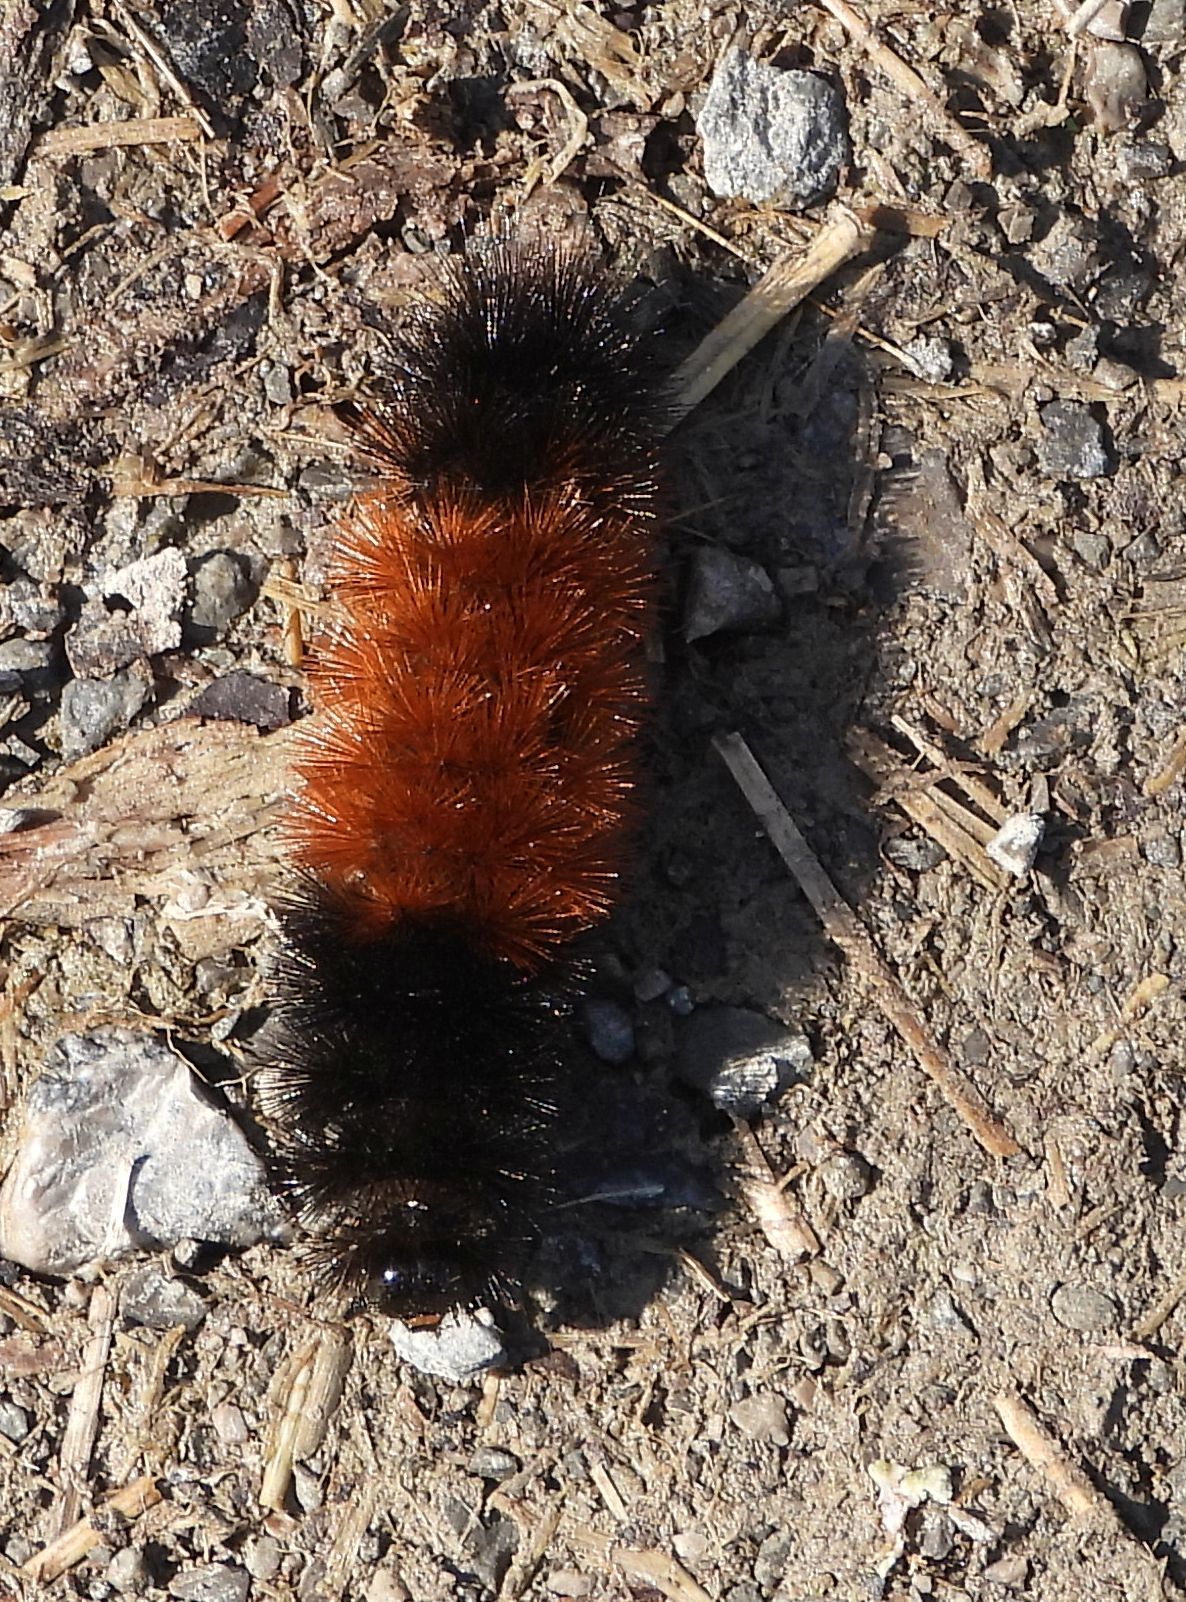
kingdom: Animalia
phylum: Arthropoda
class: Insecta
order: Lepidoptera
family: Erebidae
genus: Pyrrharctia
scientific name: Pyrrharctia isabella
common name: Isabella tiger moth
